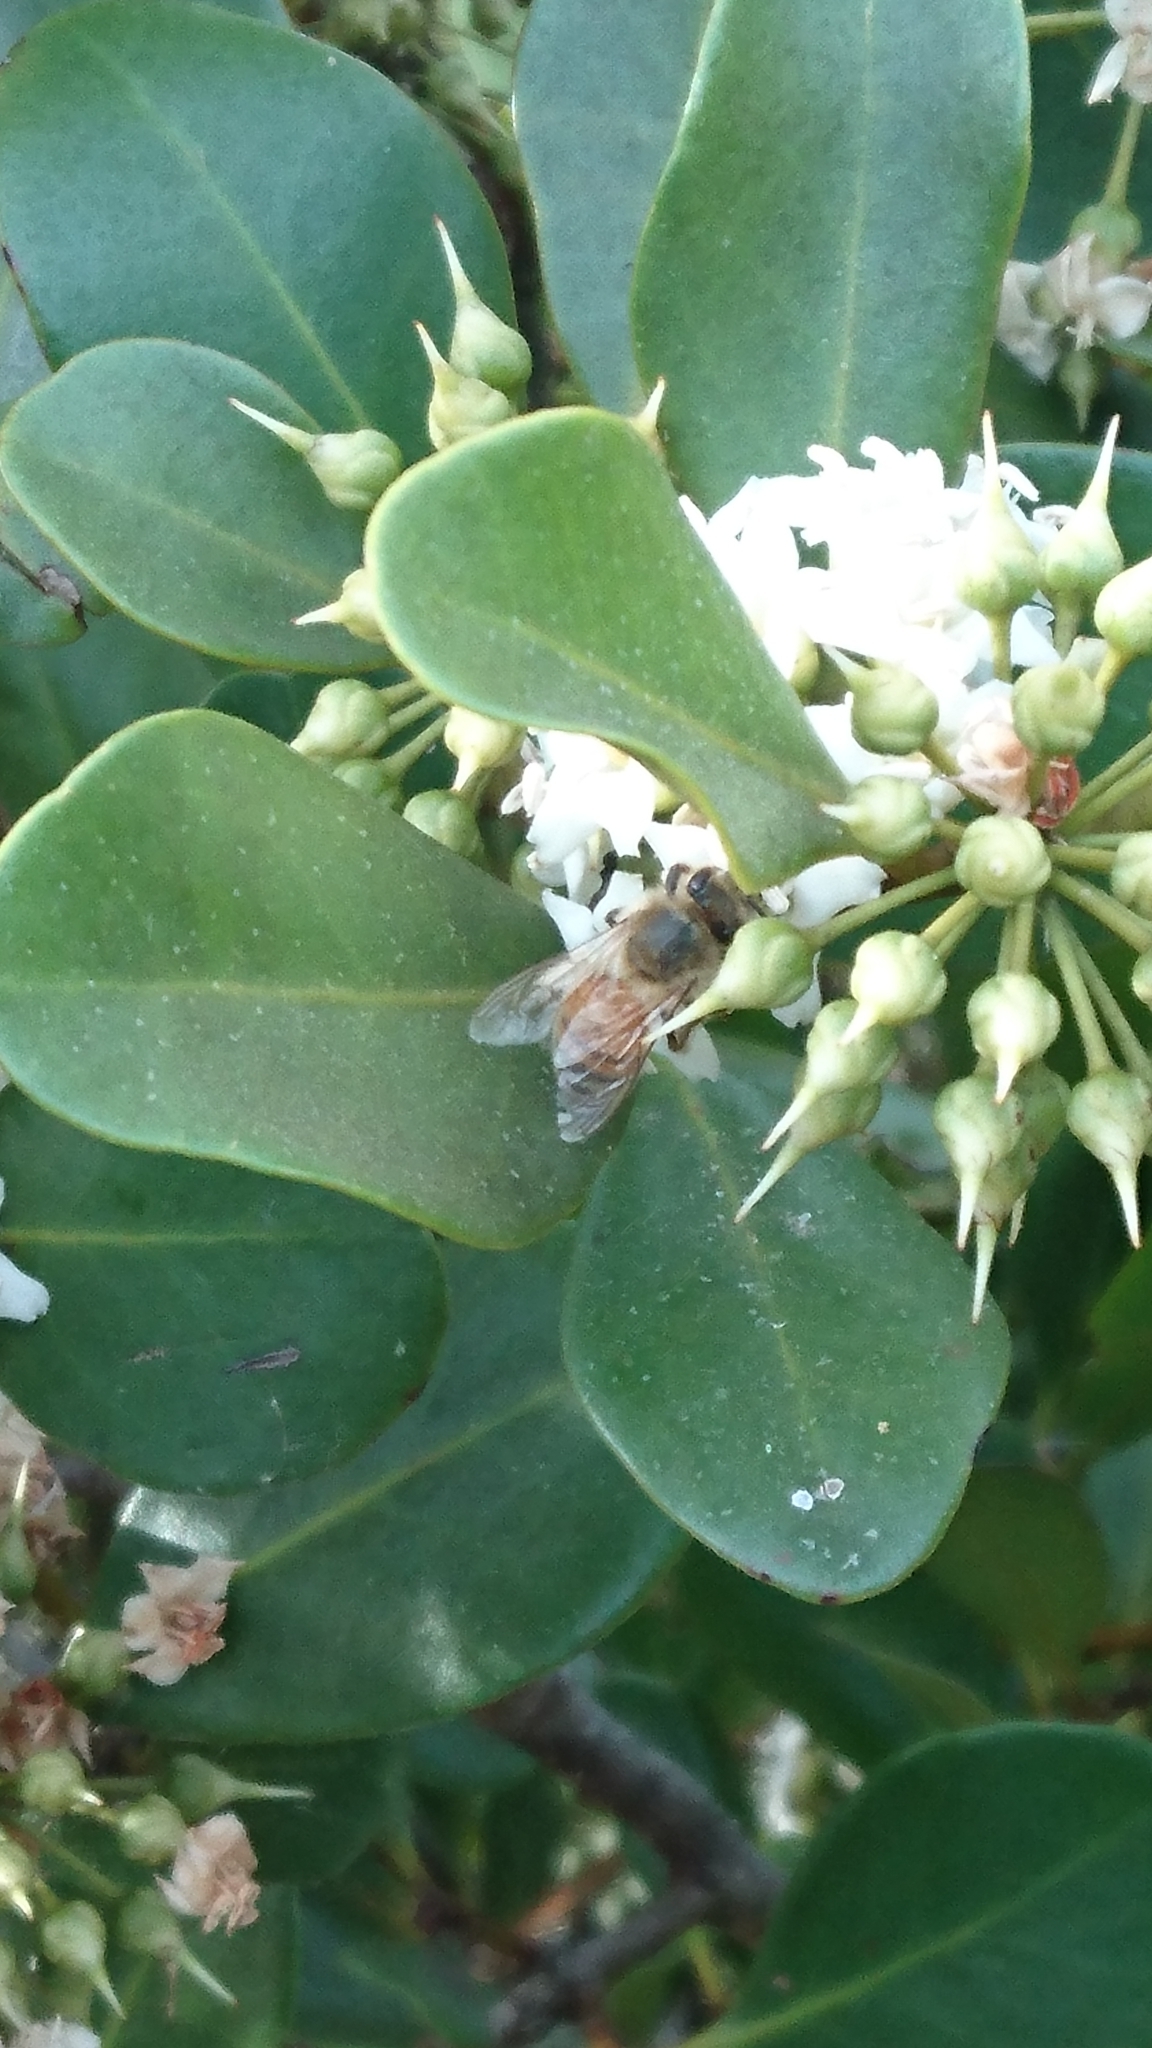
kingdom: Animalia
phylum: Arthropoda
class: Insecta
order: Hymenoptera
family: Apidae
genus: Apis
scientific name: Apis mellifera
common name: Honey bee
